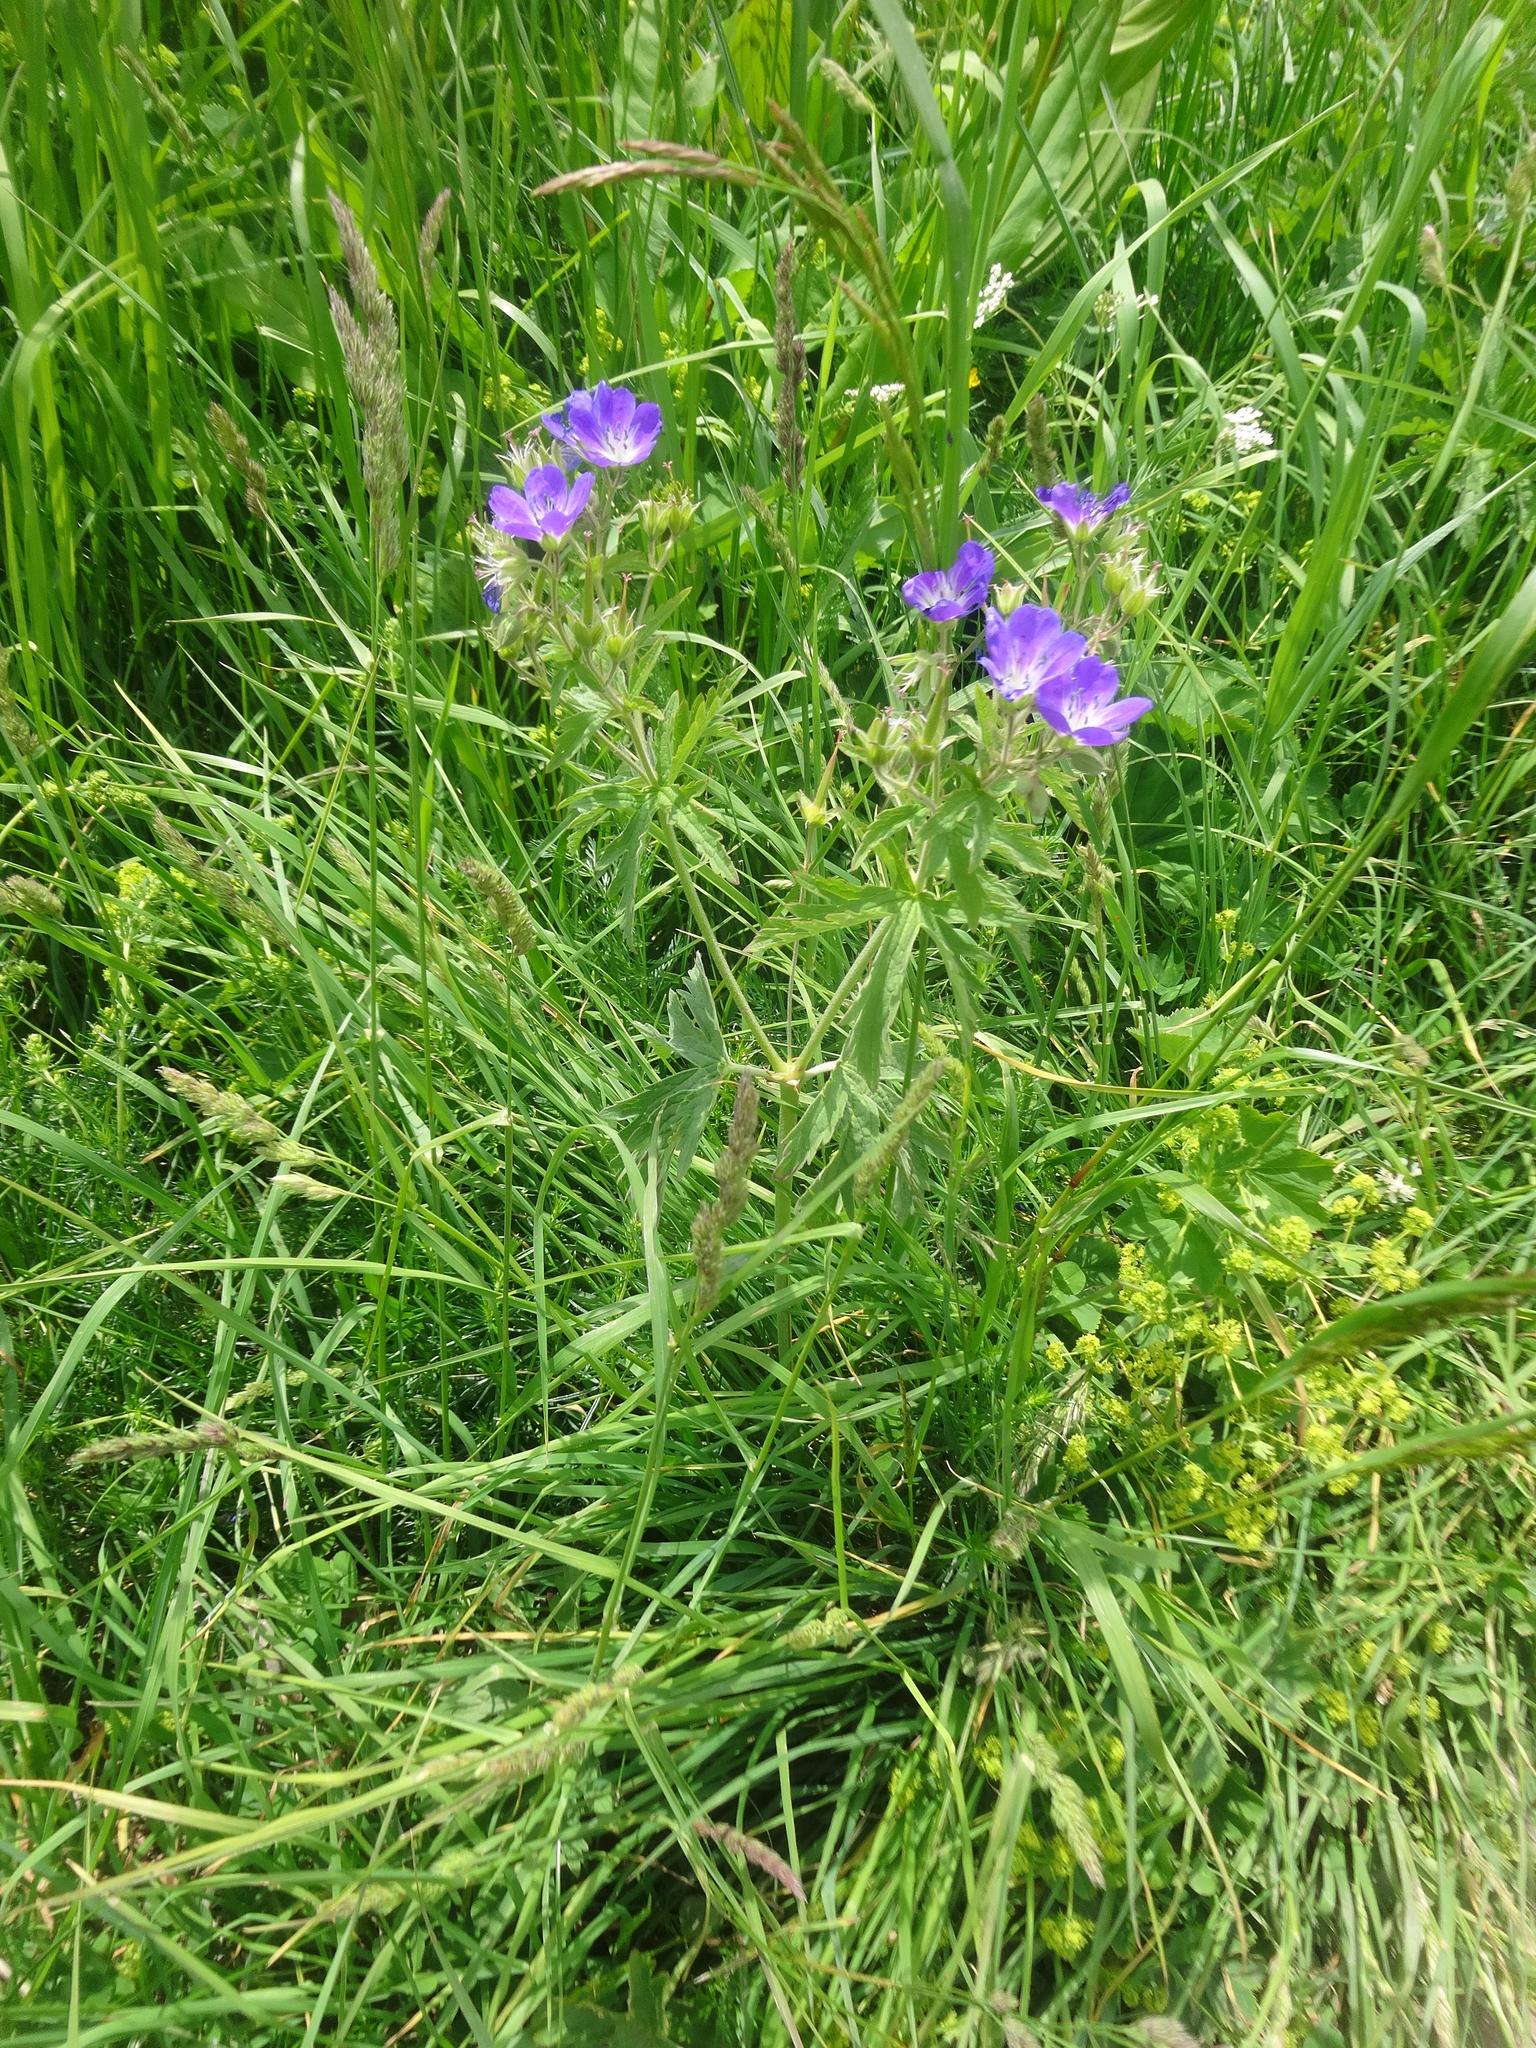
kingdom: Plantae
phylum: Tracheophyta
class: Magnoliopsida
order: Geraniales
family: Geraniaceae
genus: Geranium
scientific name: Geranium sylvaticum
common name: Wood crane's-bill
